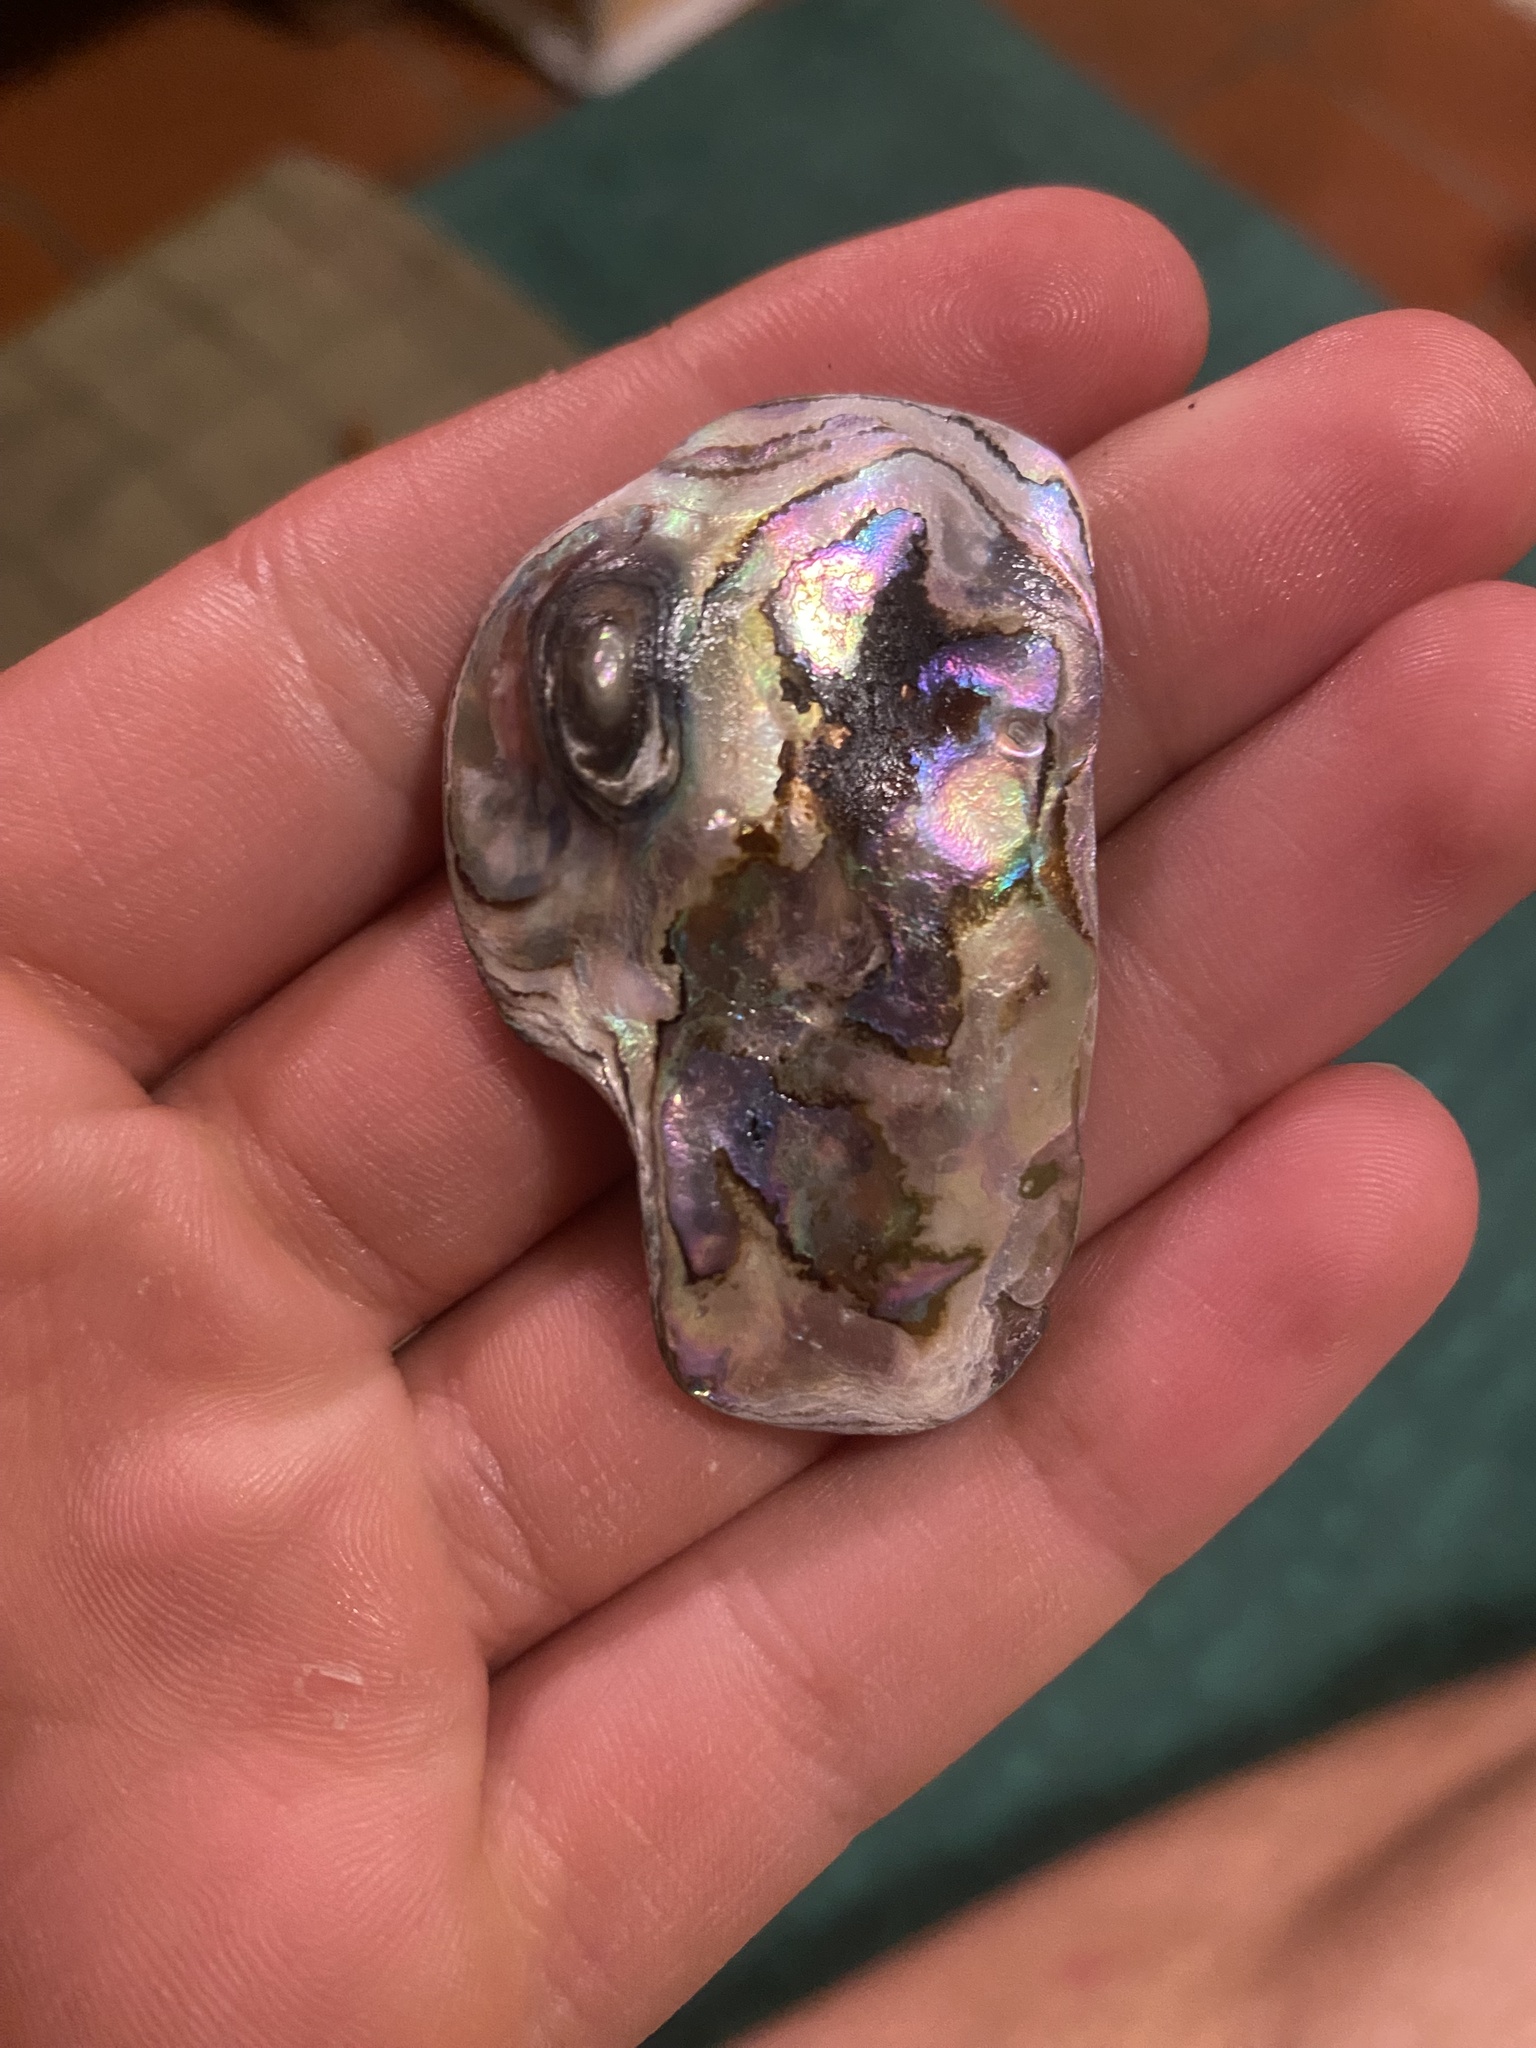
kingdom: Animalia
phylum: Mollusca
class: Gastropoda
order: Lepetellida
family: Haliotidae
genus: Haliotis
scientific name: Haliotis rufescens
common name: Red abalone
